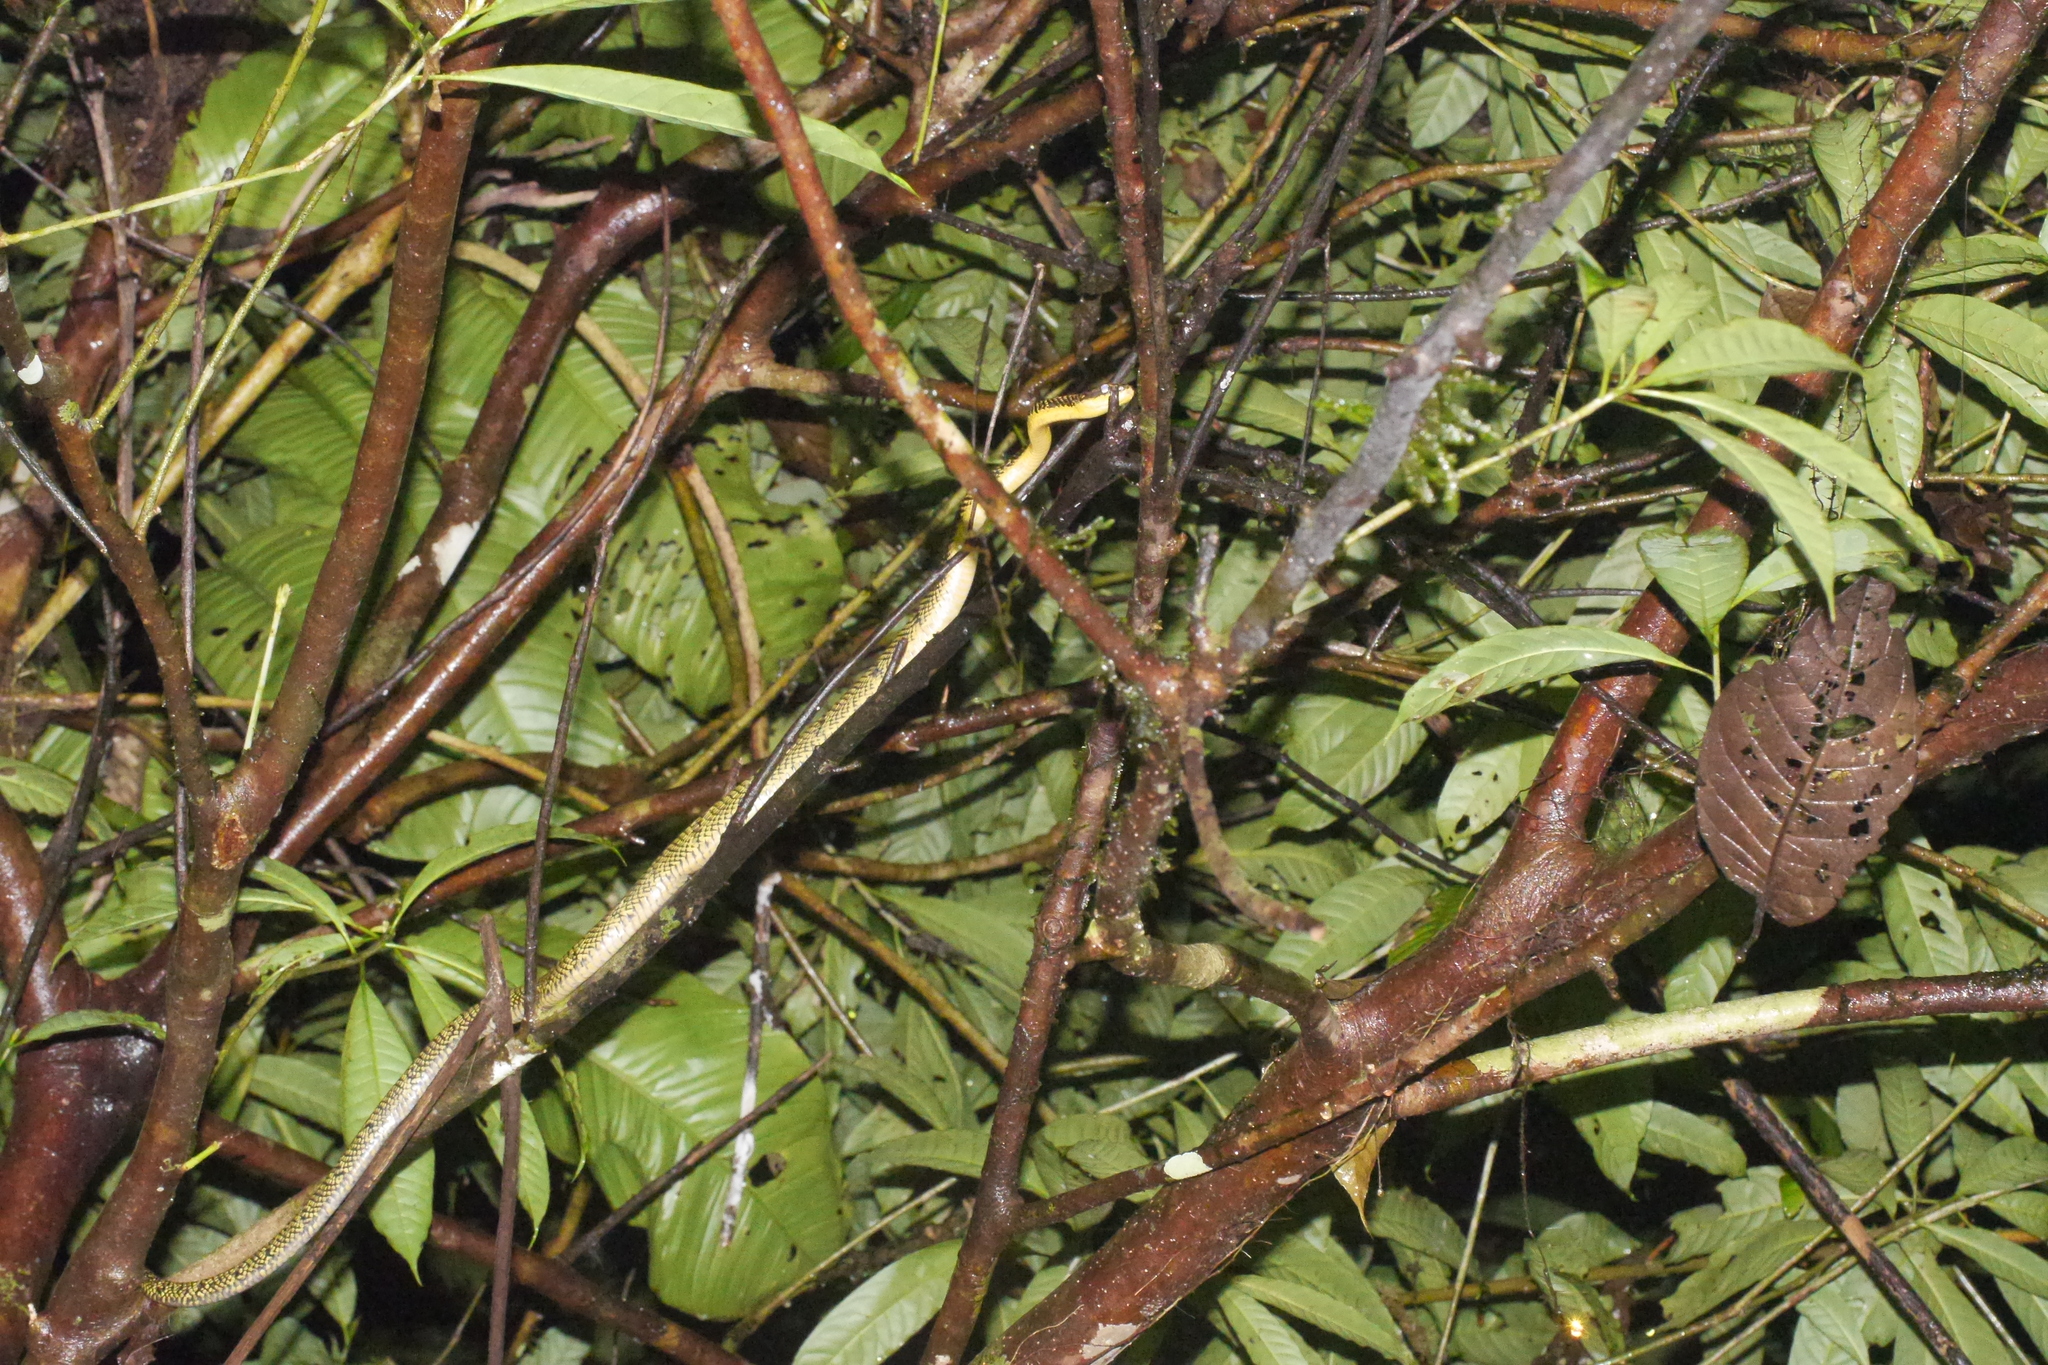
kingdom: Animalia
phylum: Chordata
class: Squamata
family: Colubridae
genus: Phrynonax
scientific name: Phrynonax shropshirei
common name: Shropshire's puffing snake
